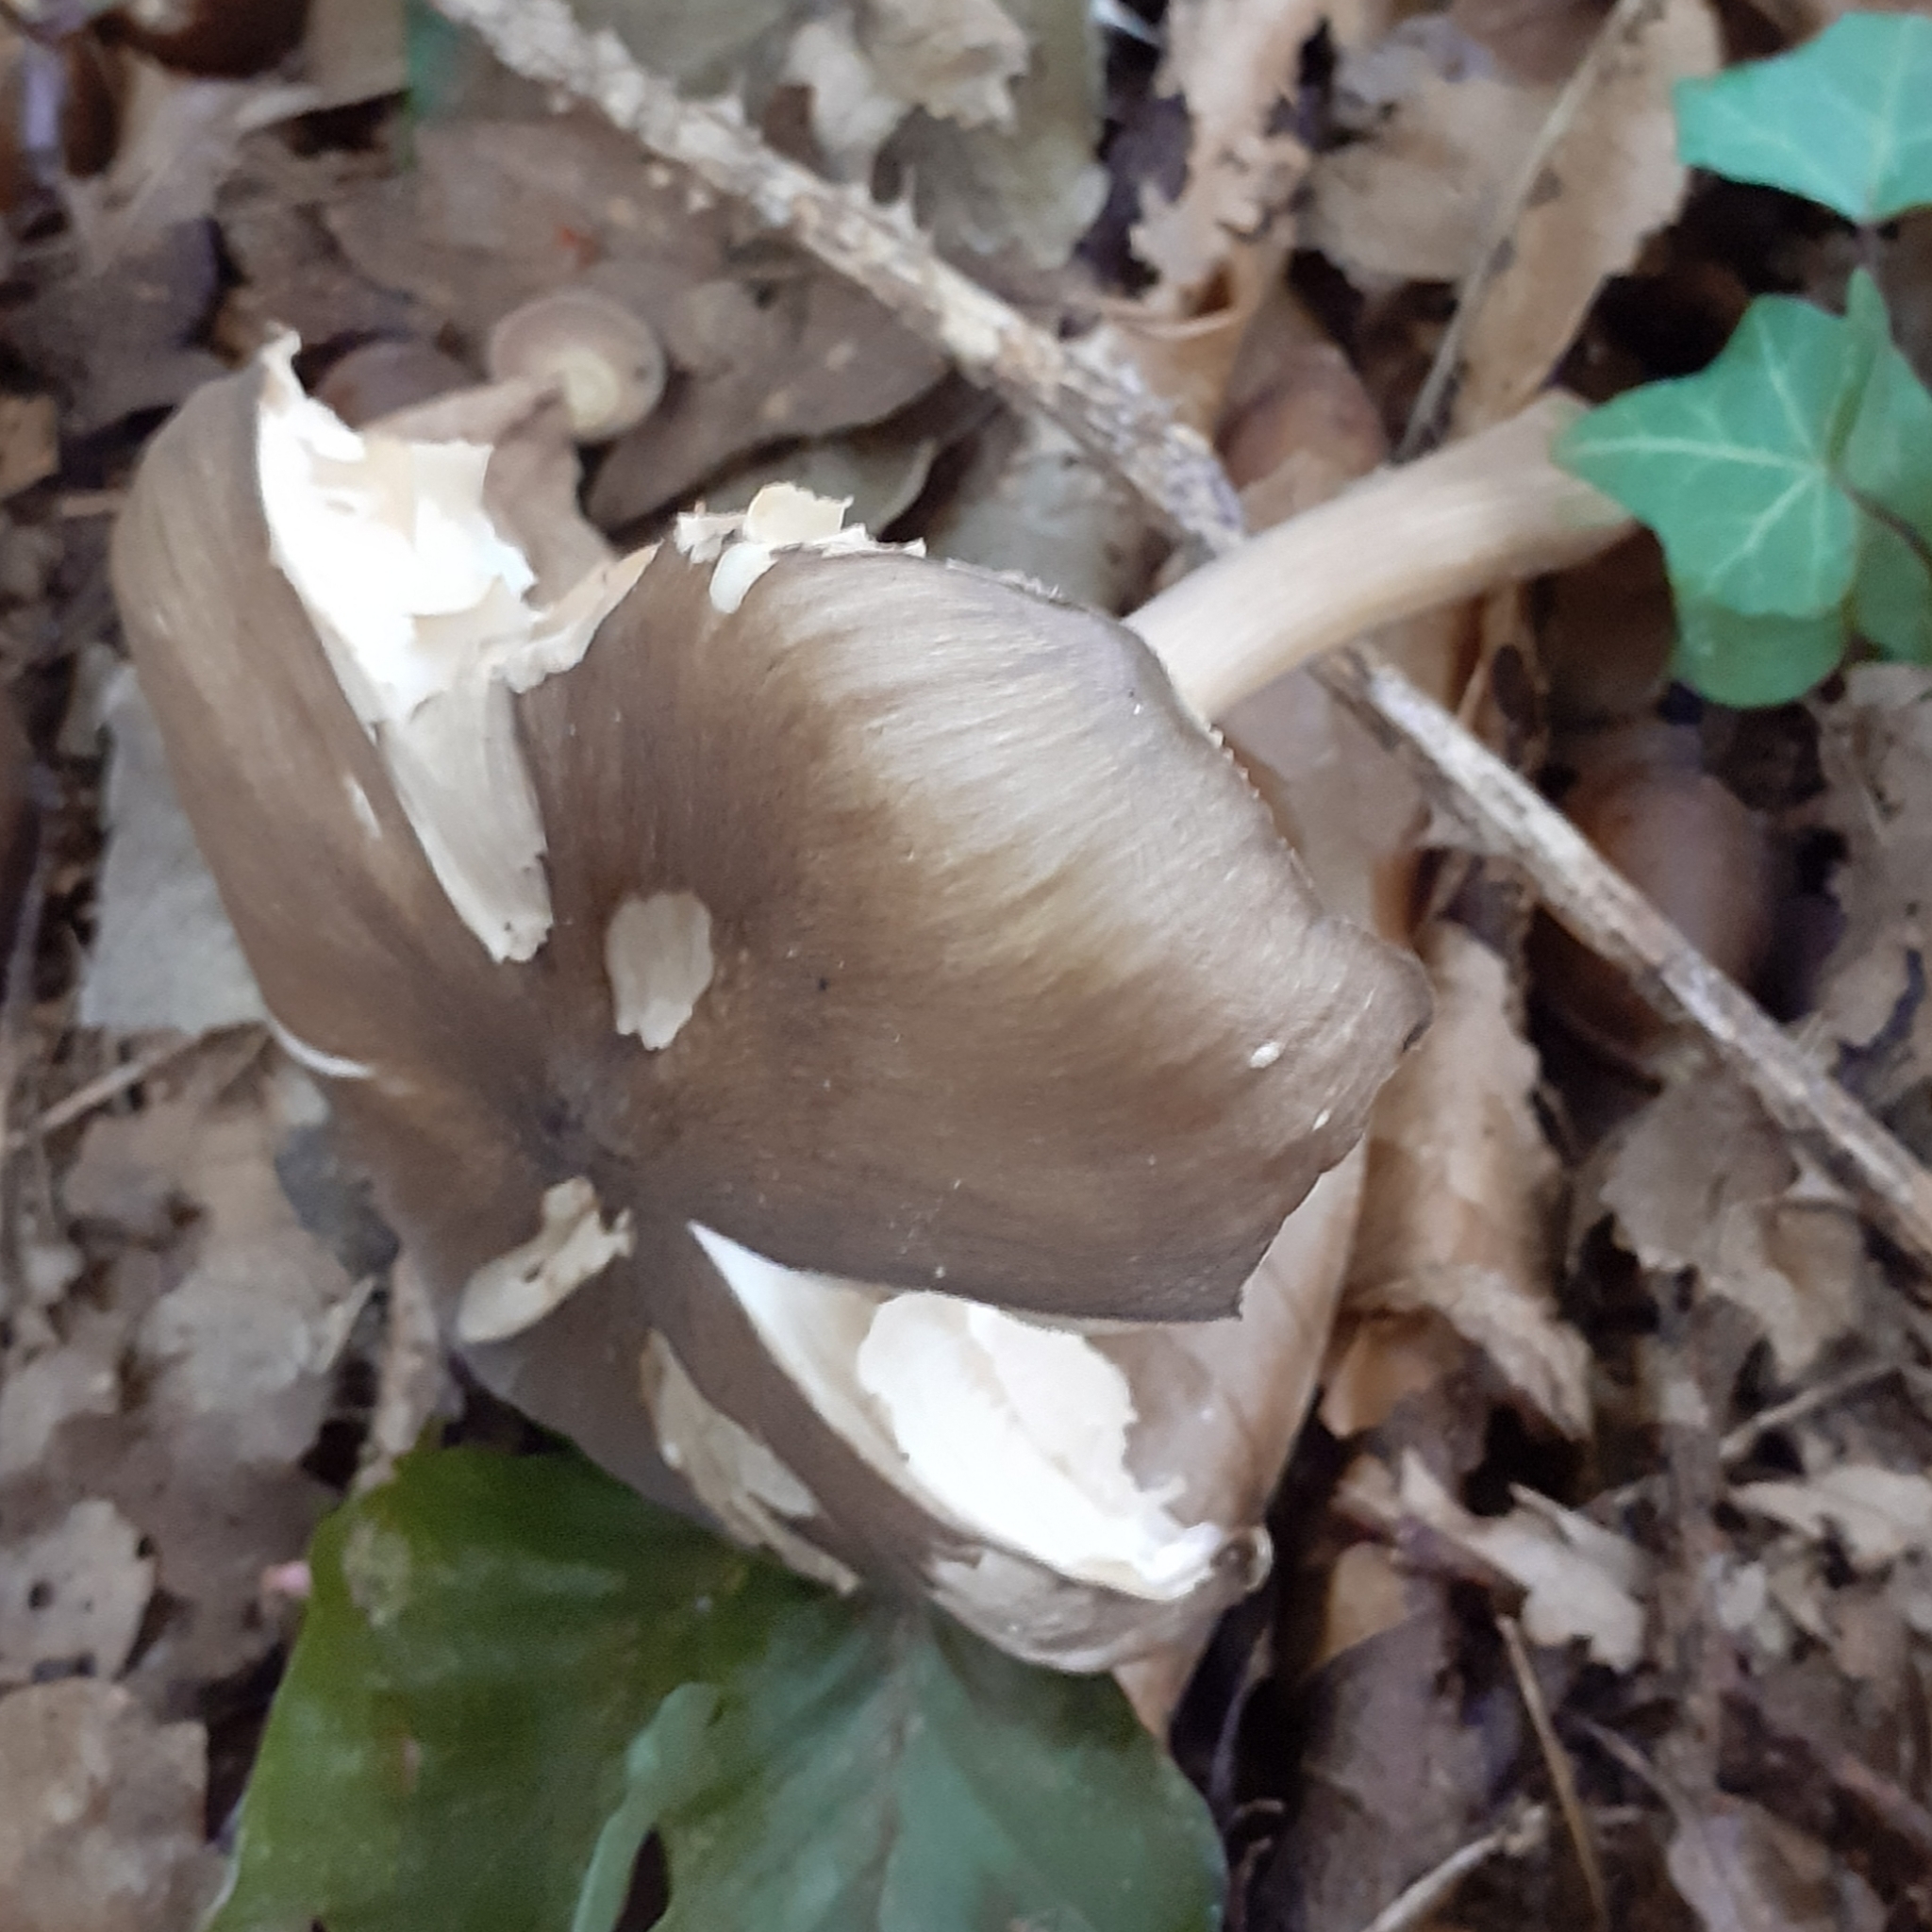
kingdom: Fungi
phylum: Basidiomycota
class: Agaricomycetes
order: Agaricales
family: Tricholomataceae
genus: Megacollybia
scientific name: Megacollybia platyphylla
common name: Whitelaced shank
